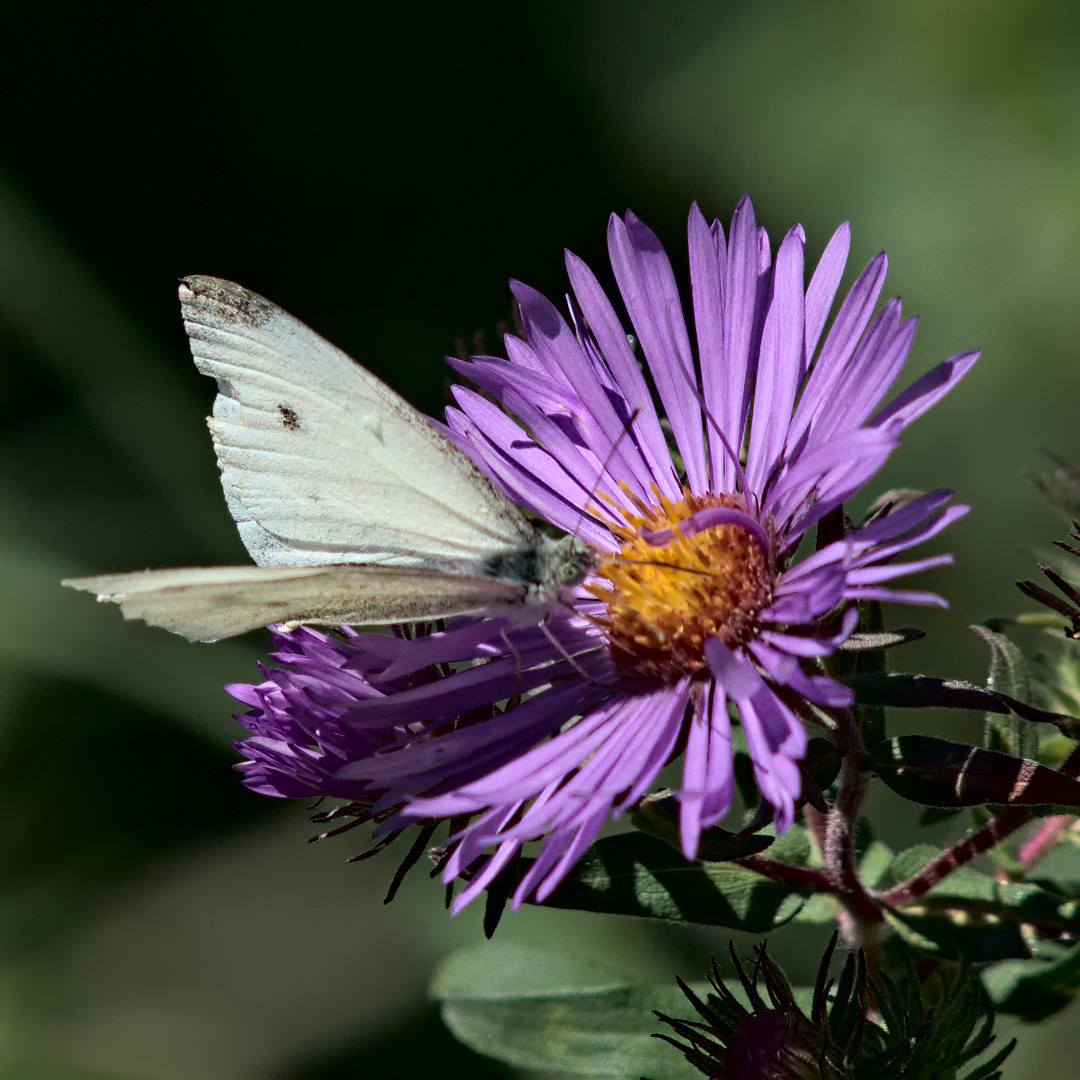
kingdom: Animalia
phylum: Arthropoda
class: Insecta
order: Lepidoptera
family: Pieridae
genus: Pieris
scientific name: Pieris rapae
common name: Small white
